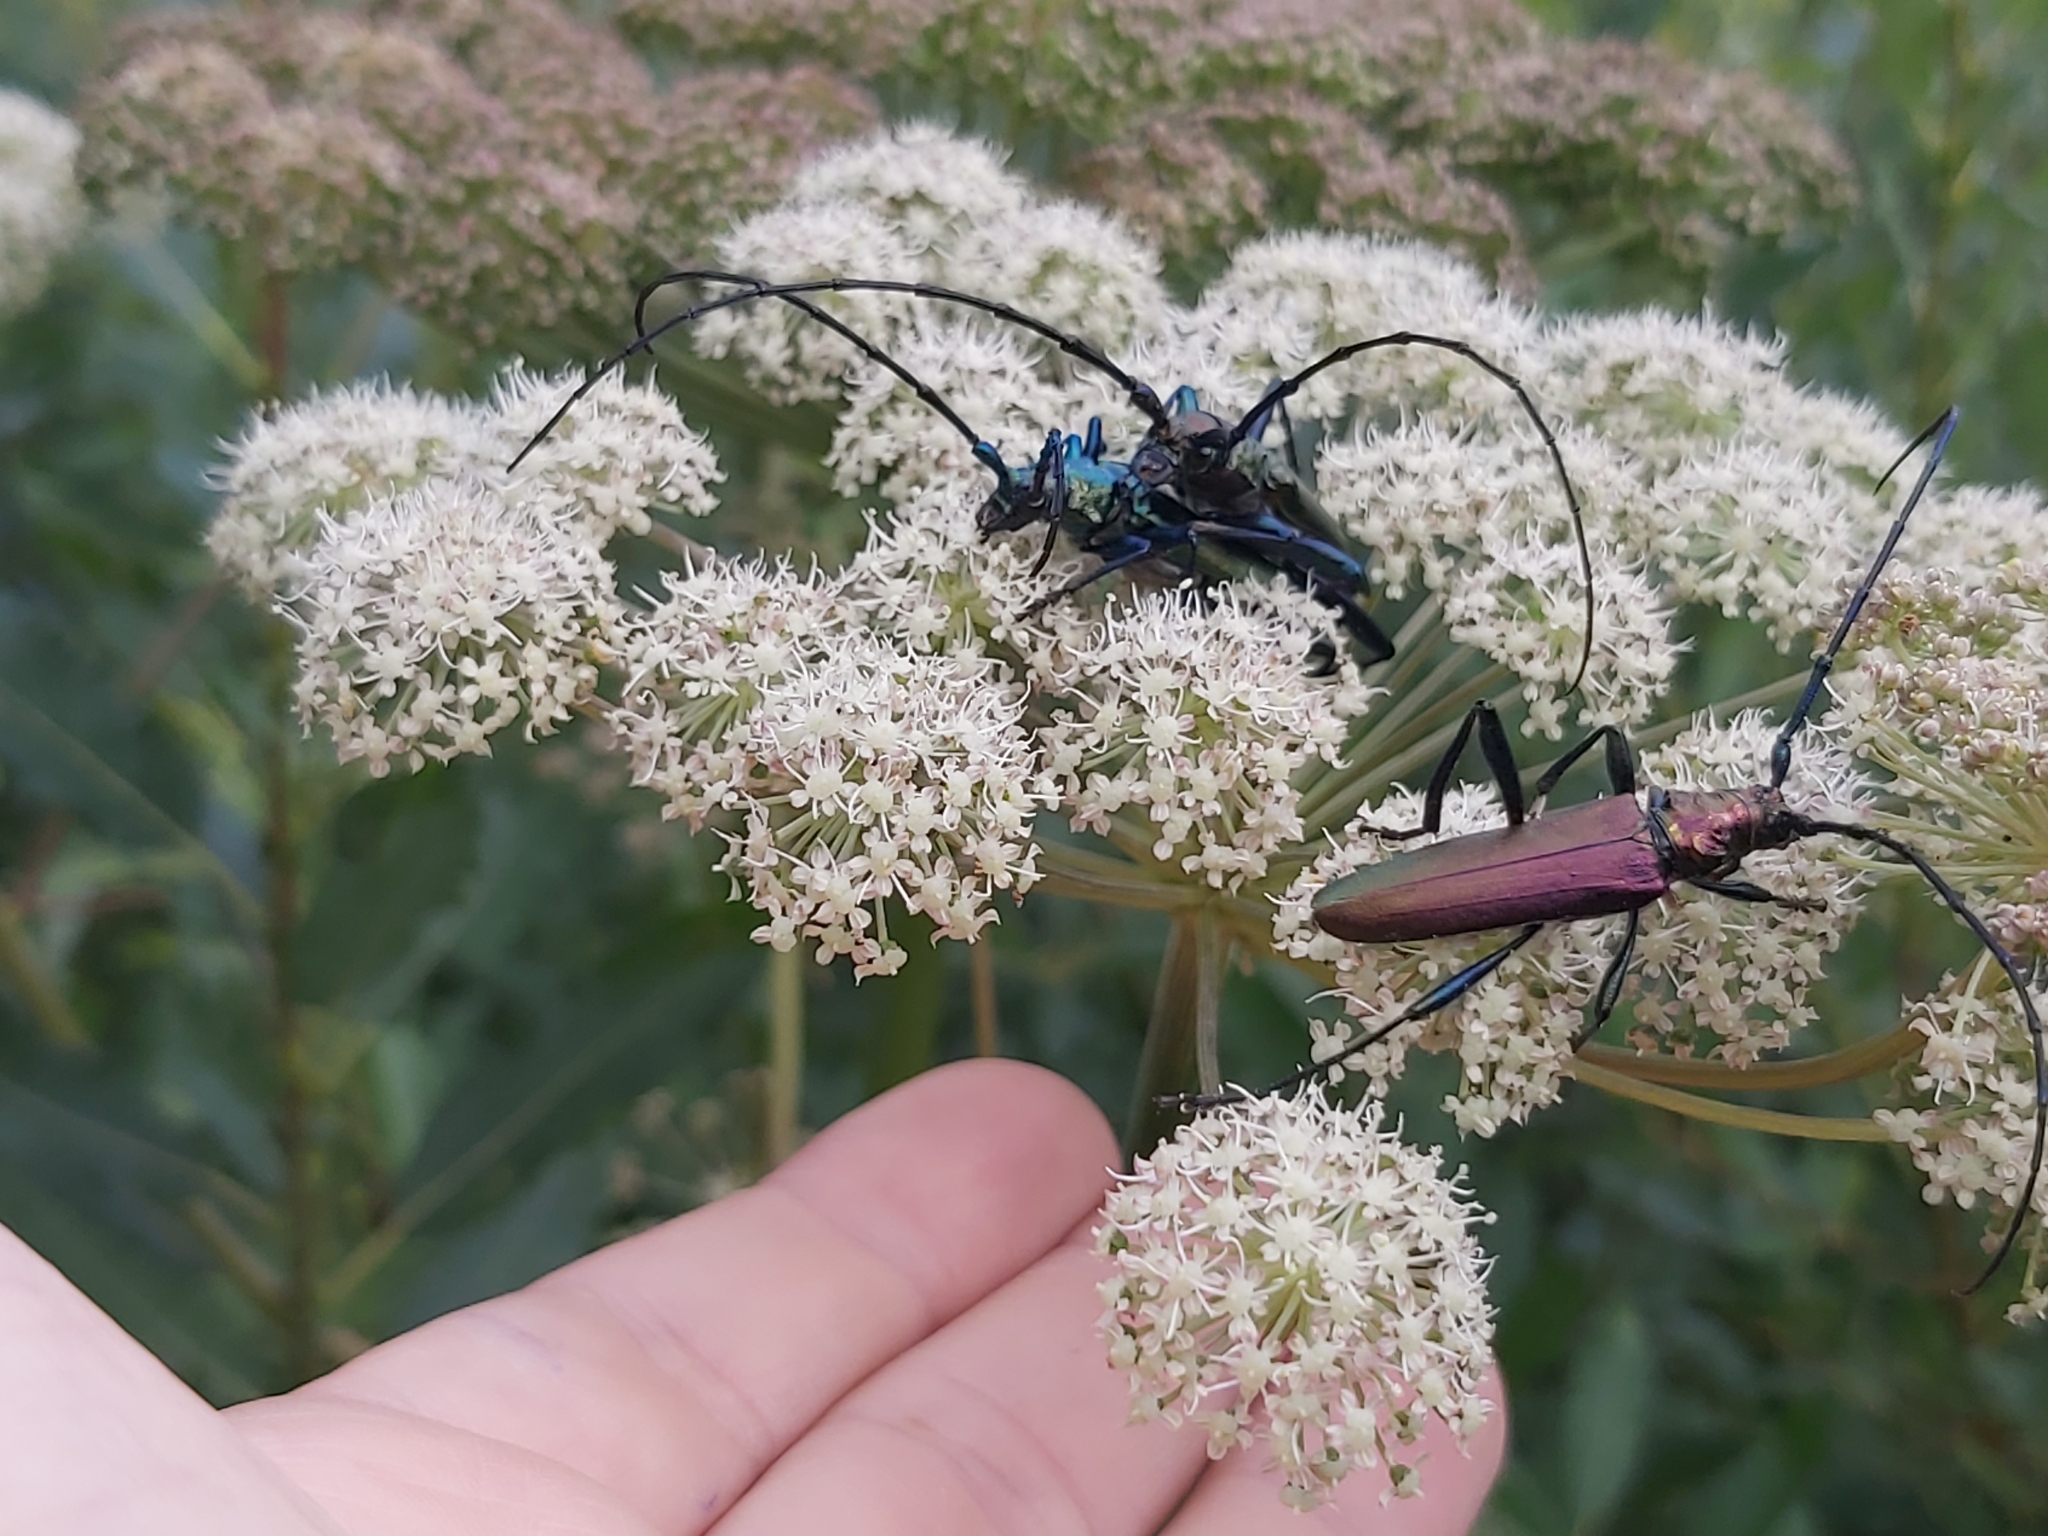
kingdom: Animalia
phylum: Arthropoda
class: Insecta
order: Coleoptera
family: Cerambycidae
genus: Aromia
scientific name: Aromia moschata
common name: Musk beetle
